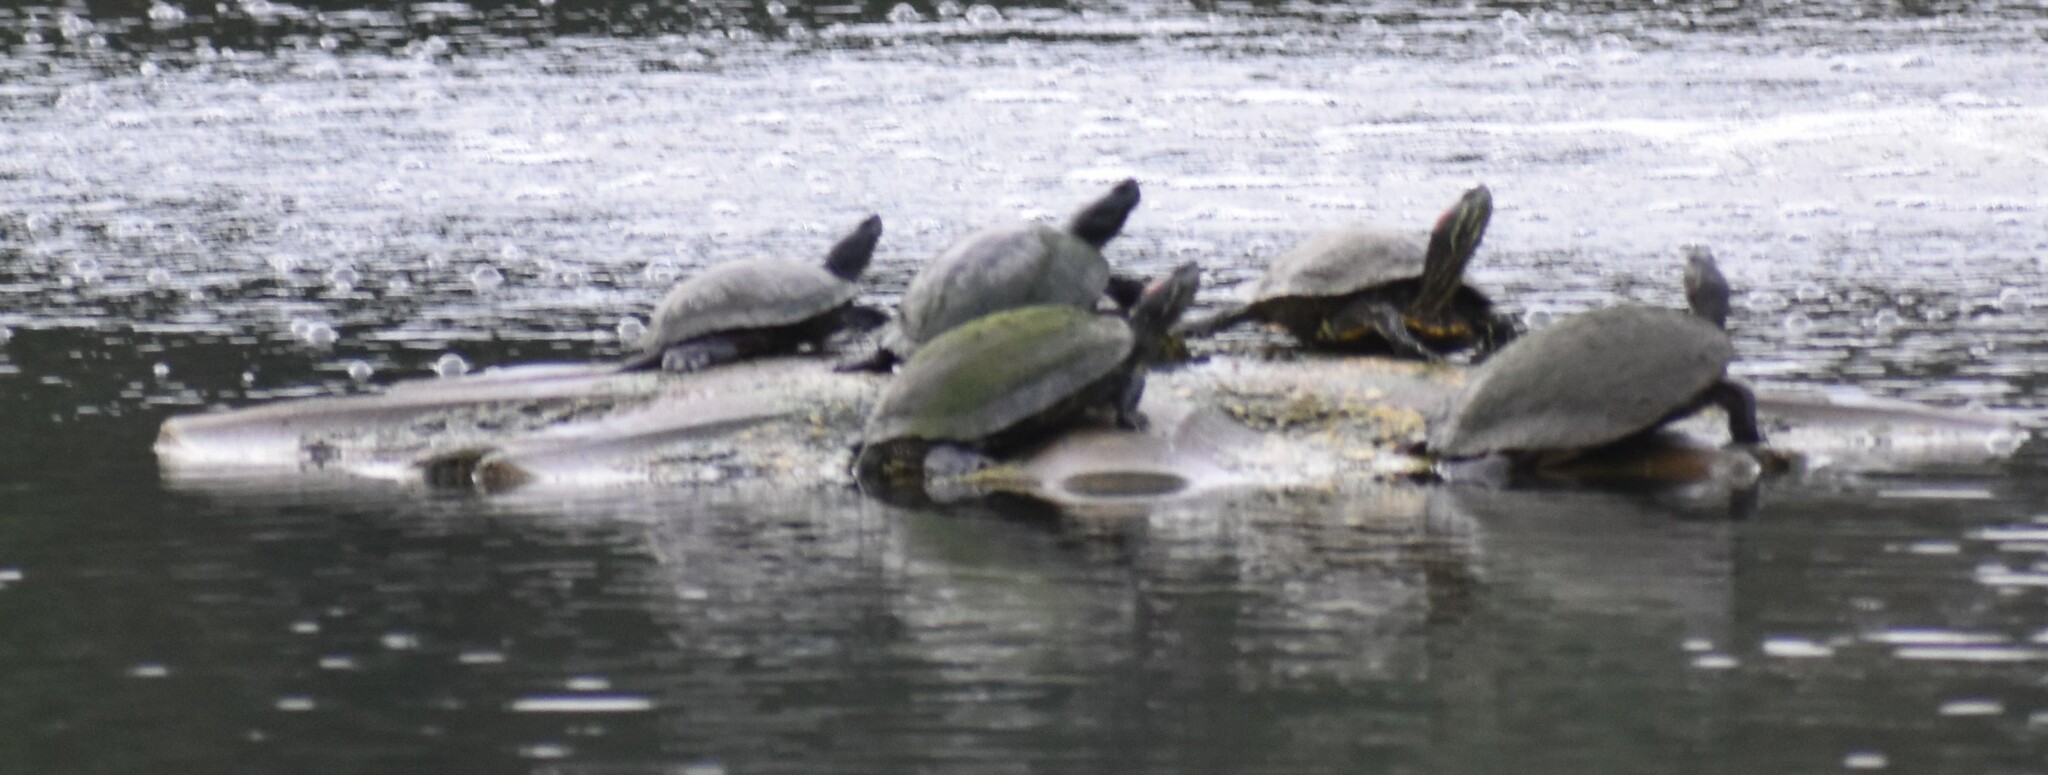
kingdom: Animalia
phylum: Chordata
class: Testudines
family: Emydidae
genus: Trachemys
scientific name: Trachemys scripta
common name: Slider
